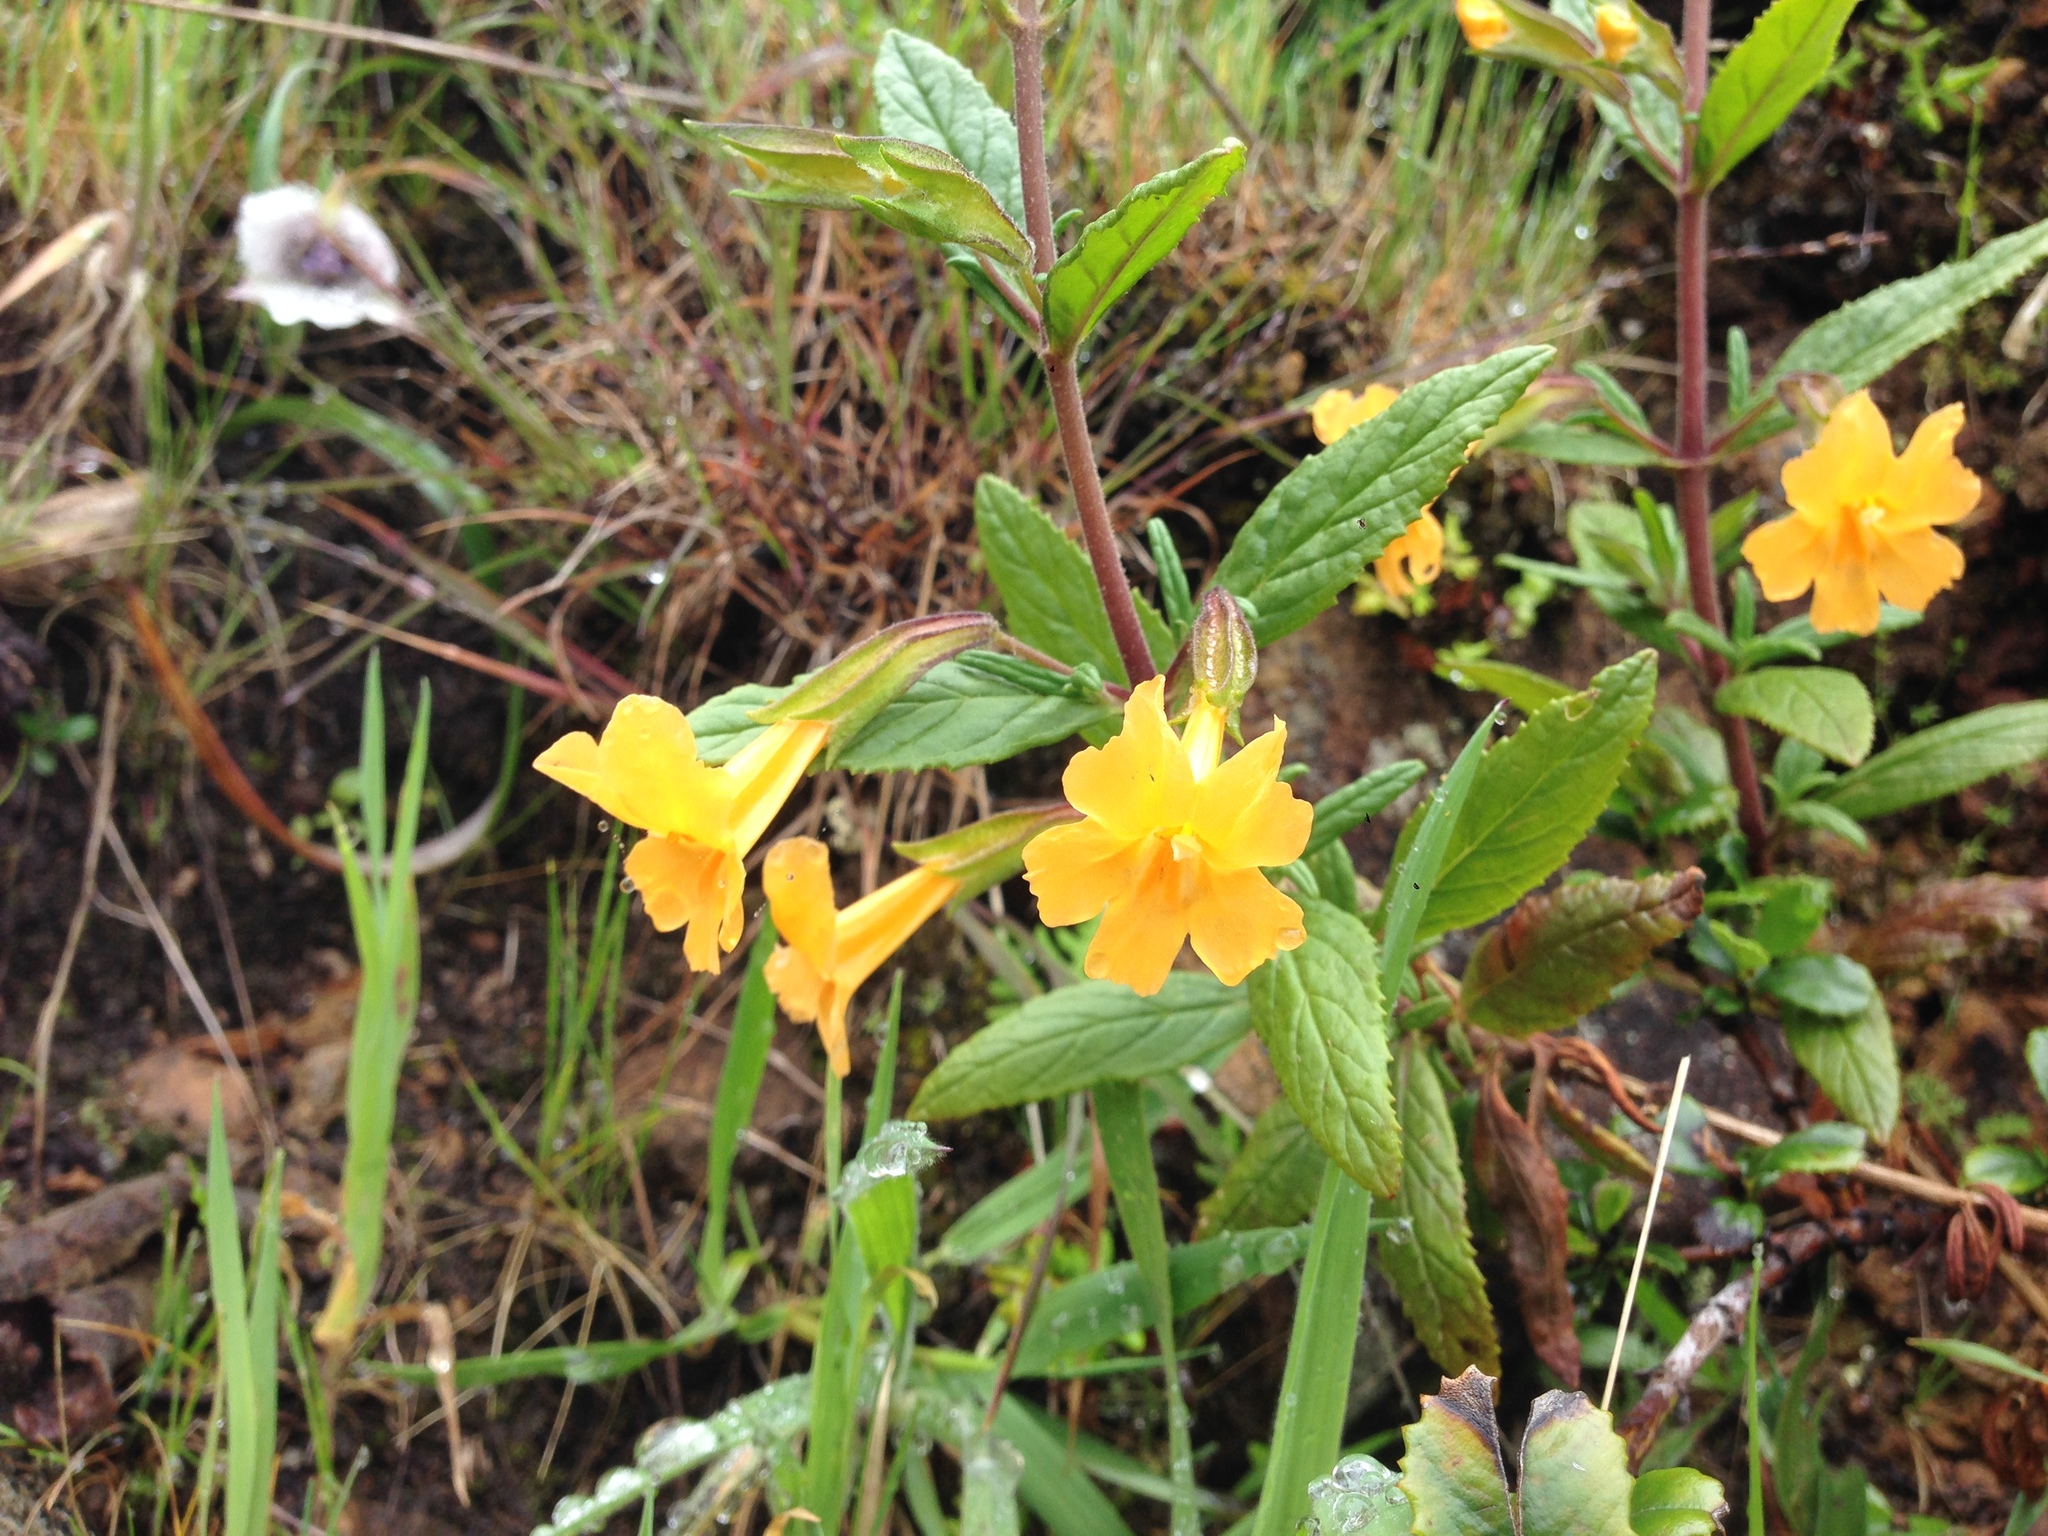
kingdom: Plantae
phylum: Tracheophyta
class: Magnoliopsida
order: Lamiales
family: Phrymaceae
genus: Diplacus
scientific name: Diplacus aurantiacus
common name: Bush monkey-flower
